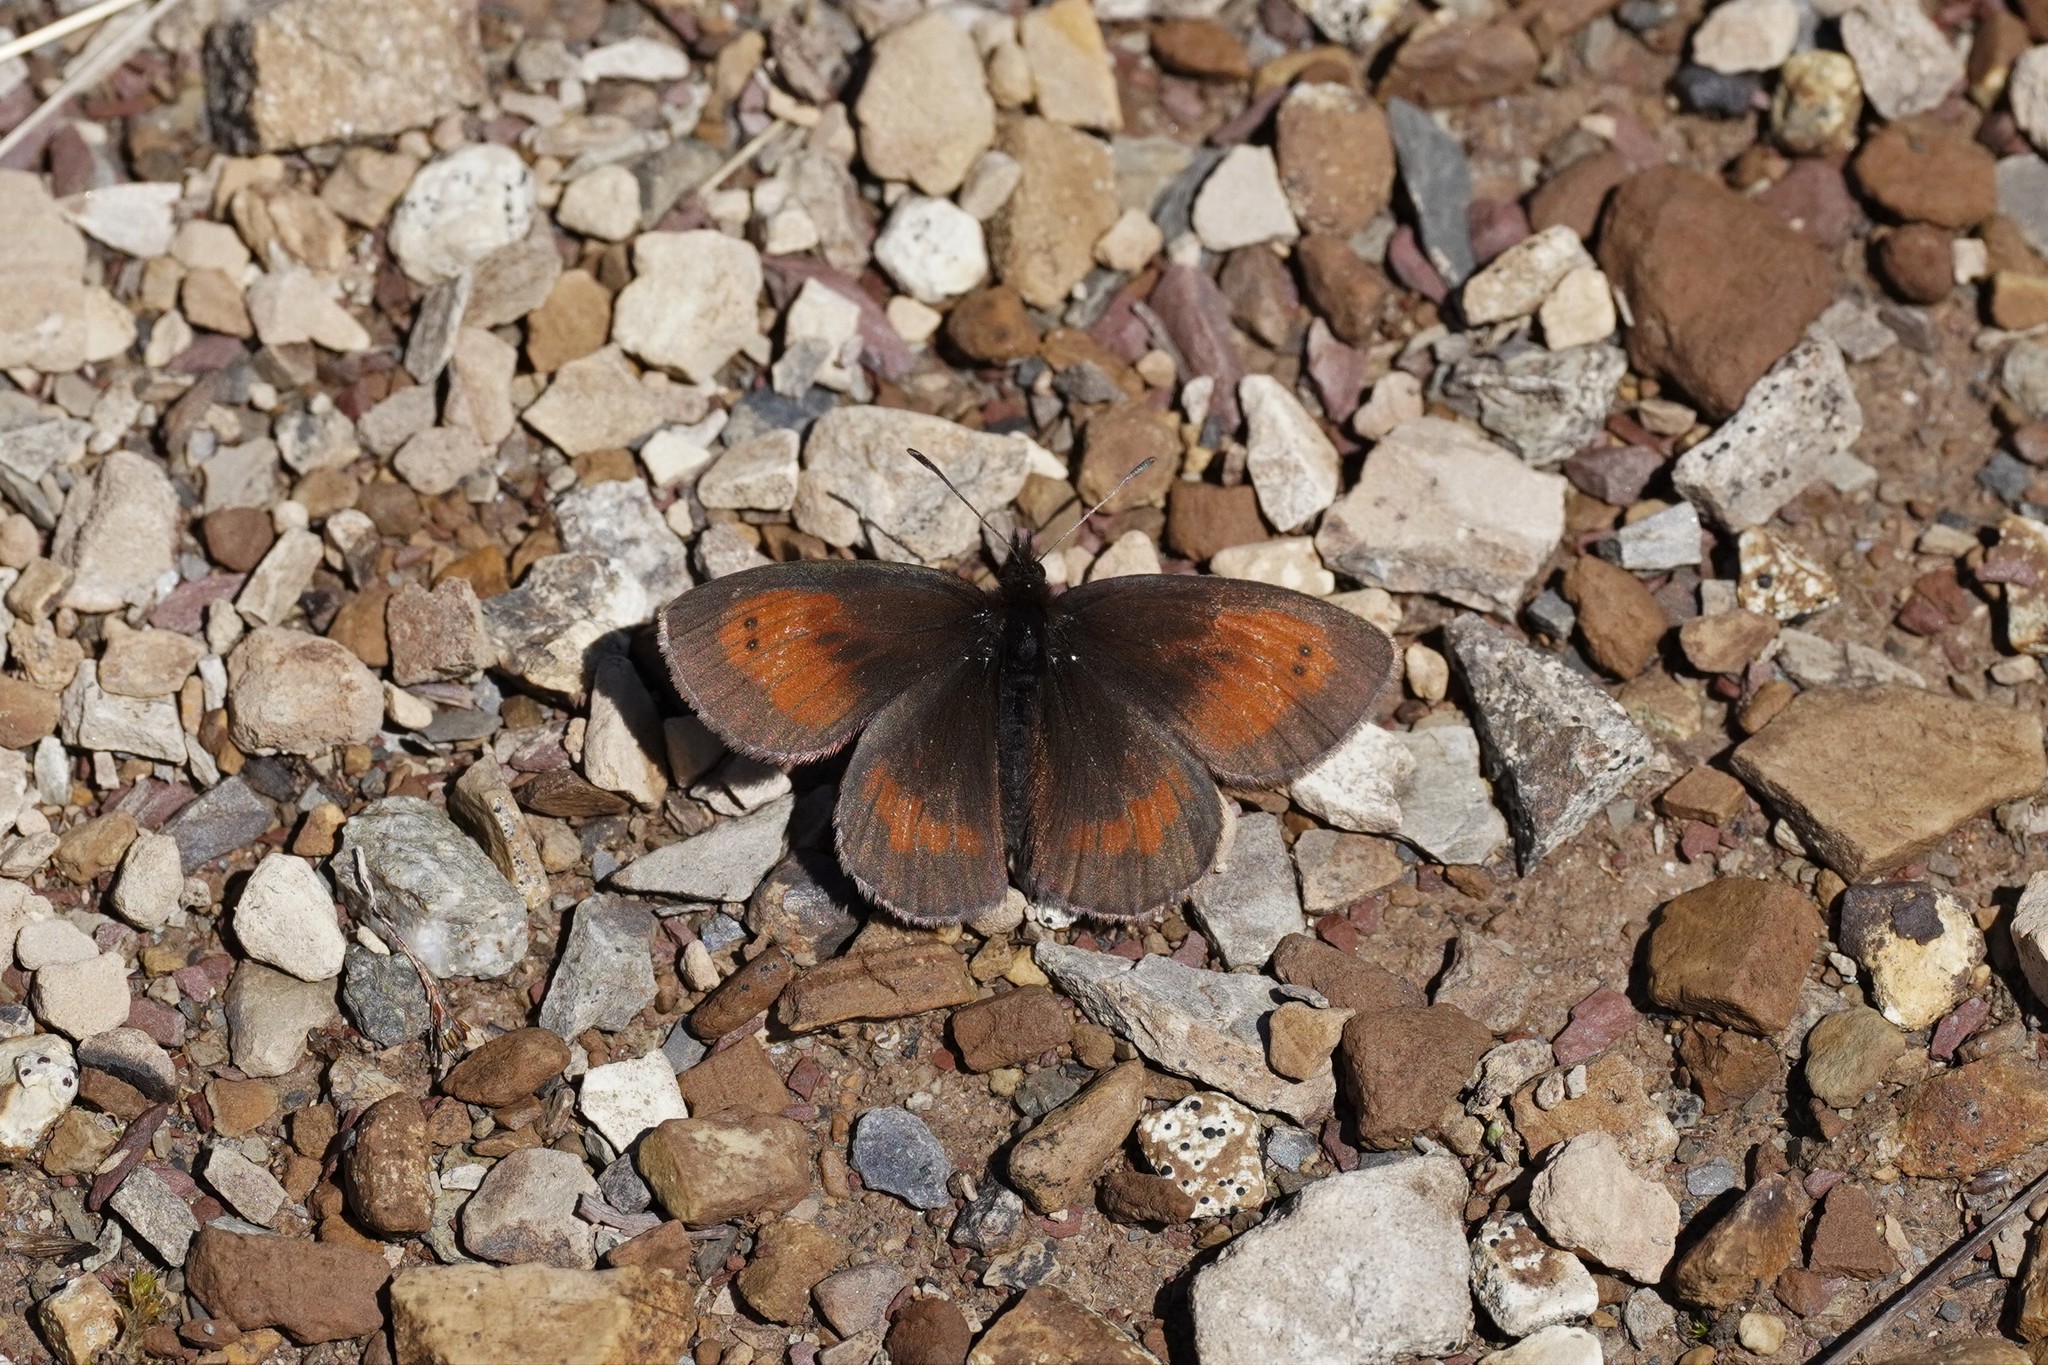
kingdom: Animalia
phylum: Arthropoda
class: Insecta
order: Lepidoptera
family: Nymphalidae
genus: Erebia
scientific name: Erebia mnestra
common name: Mnestra’s ringlet
